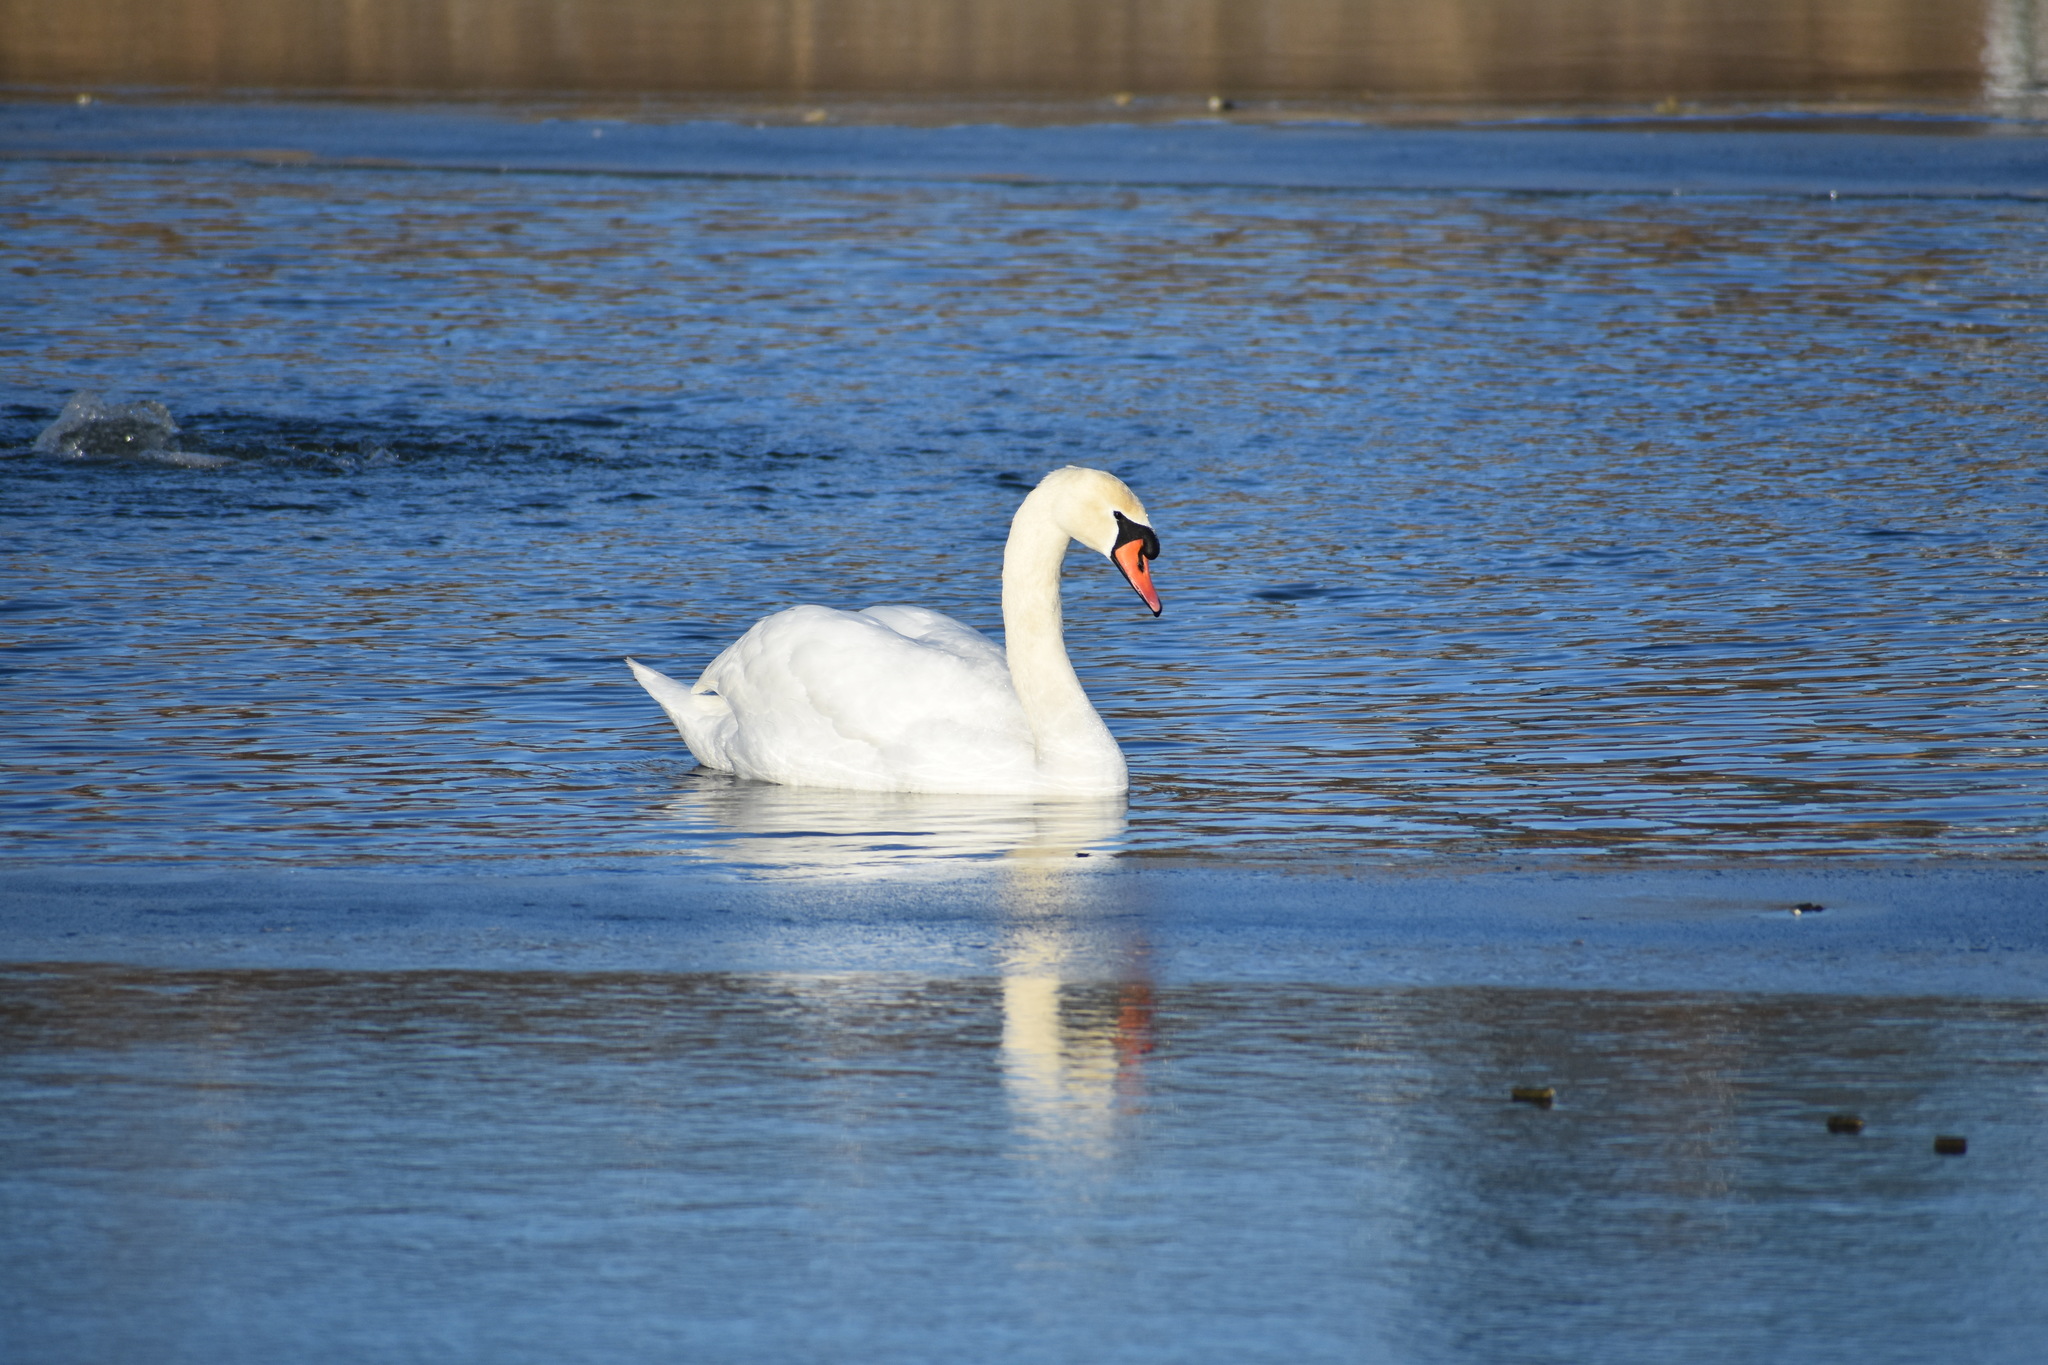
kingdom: Animalia
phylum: Chordata
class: Aves
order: Anseriformes
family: Anatidae
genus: Cygnus
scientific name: Cygnus olor
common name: Mute swan
